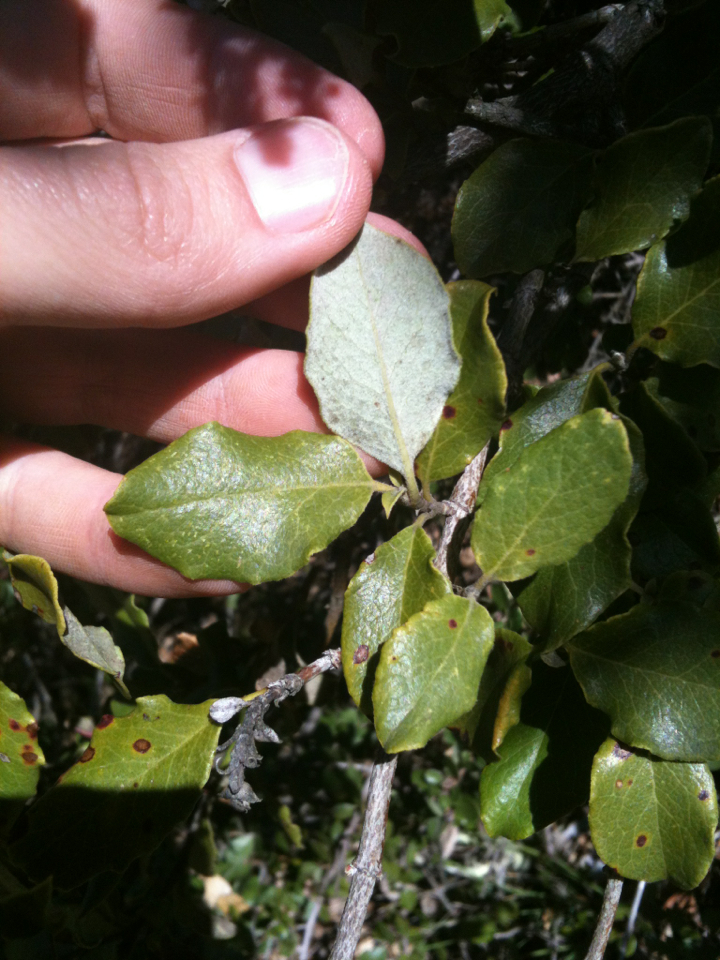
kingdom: Plantae
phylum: Tracheophyta
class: Magnoliopsida
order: Garryales
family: Garryaceae
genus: Garrya
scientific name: Garrya elliptica
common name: Silk-tassel
